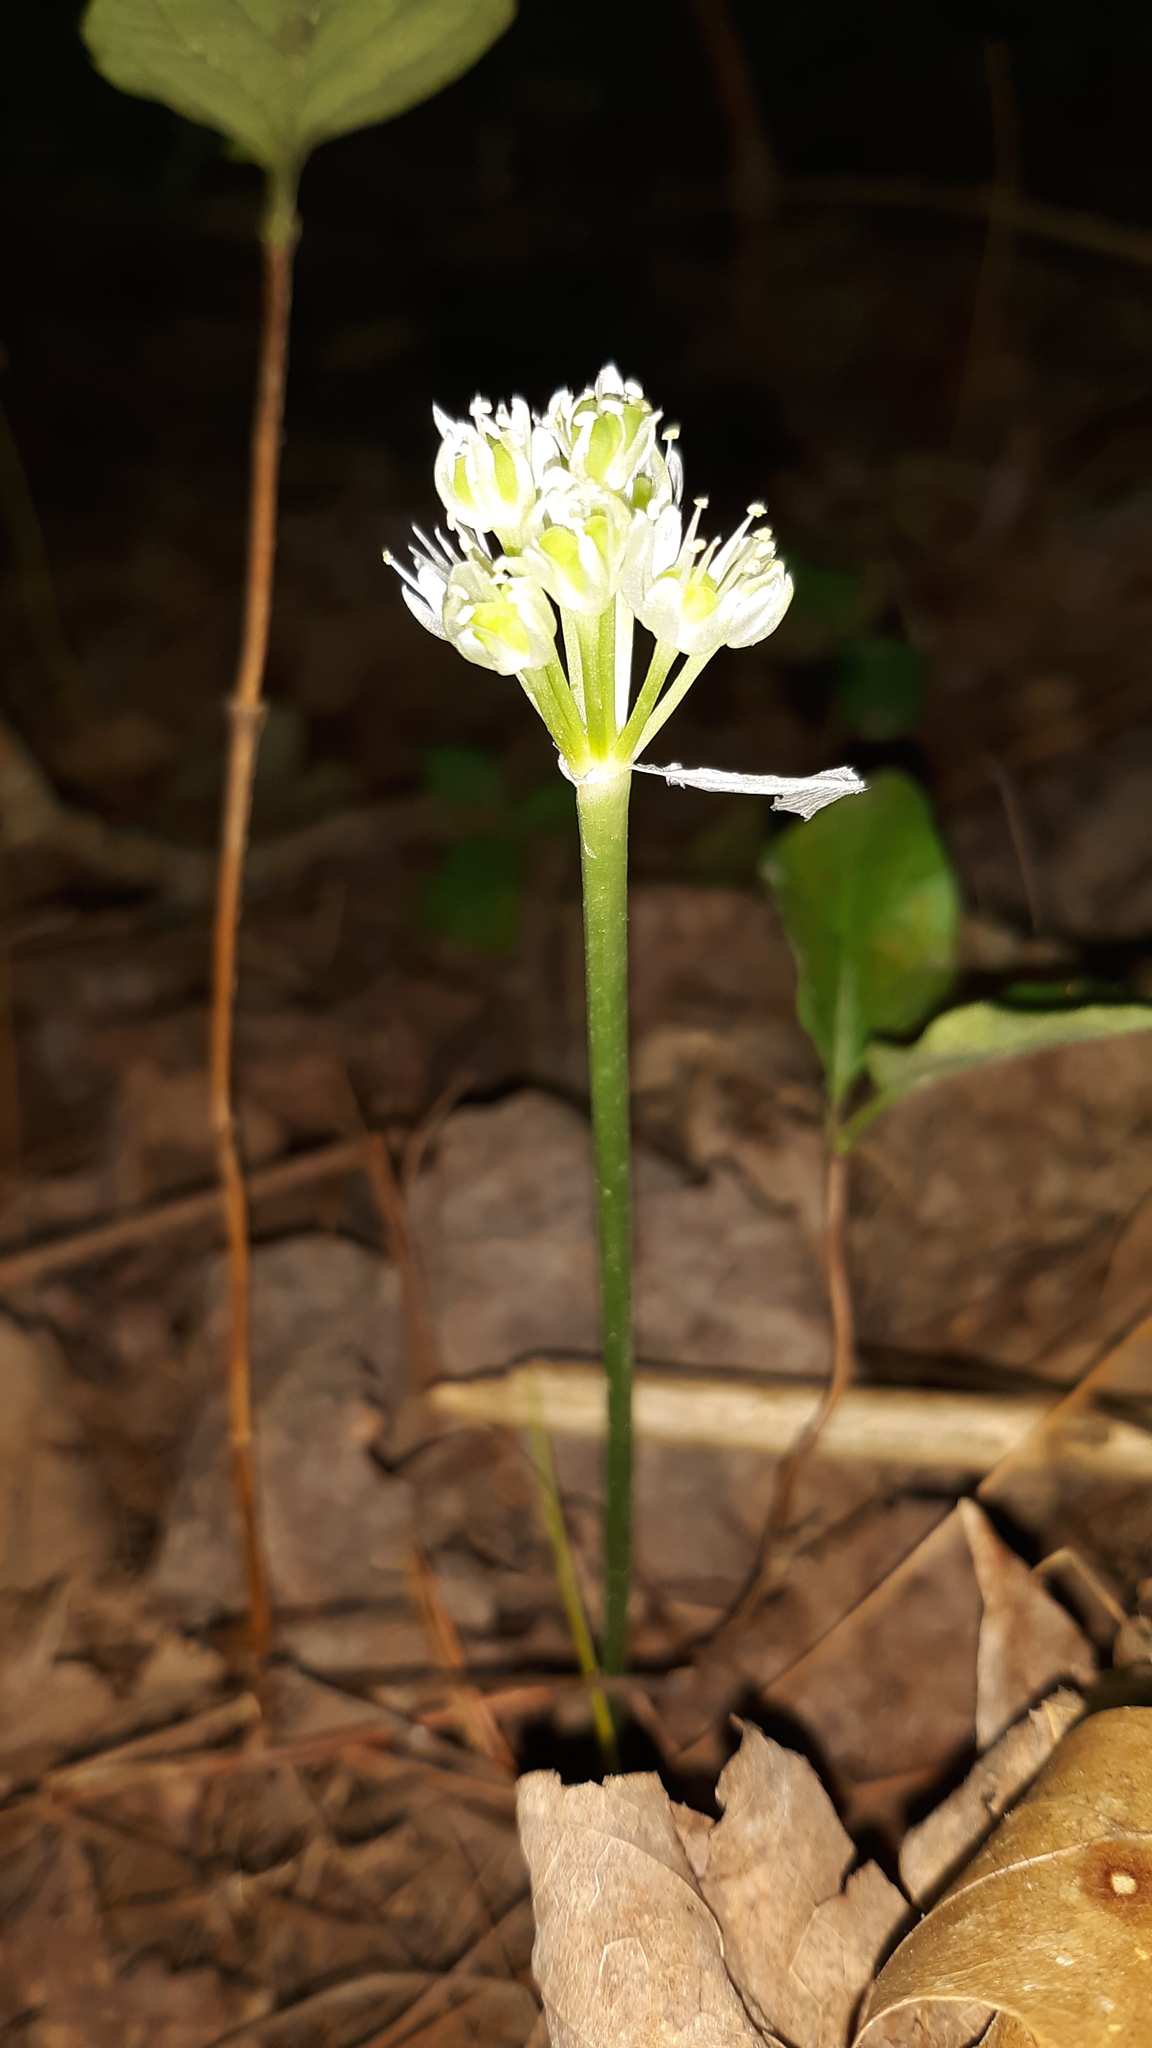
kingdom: Plantae
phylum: Tracheophyta
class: Liliopsida
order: Asparagales
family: Amaryllidaceae
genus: Allium
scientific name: Allium tricoccum
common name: Ramp
